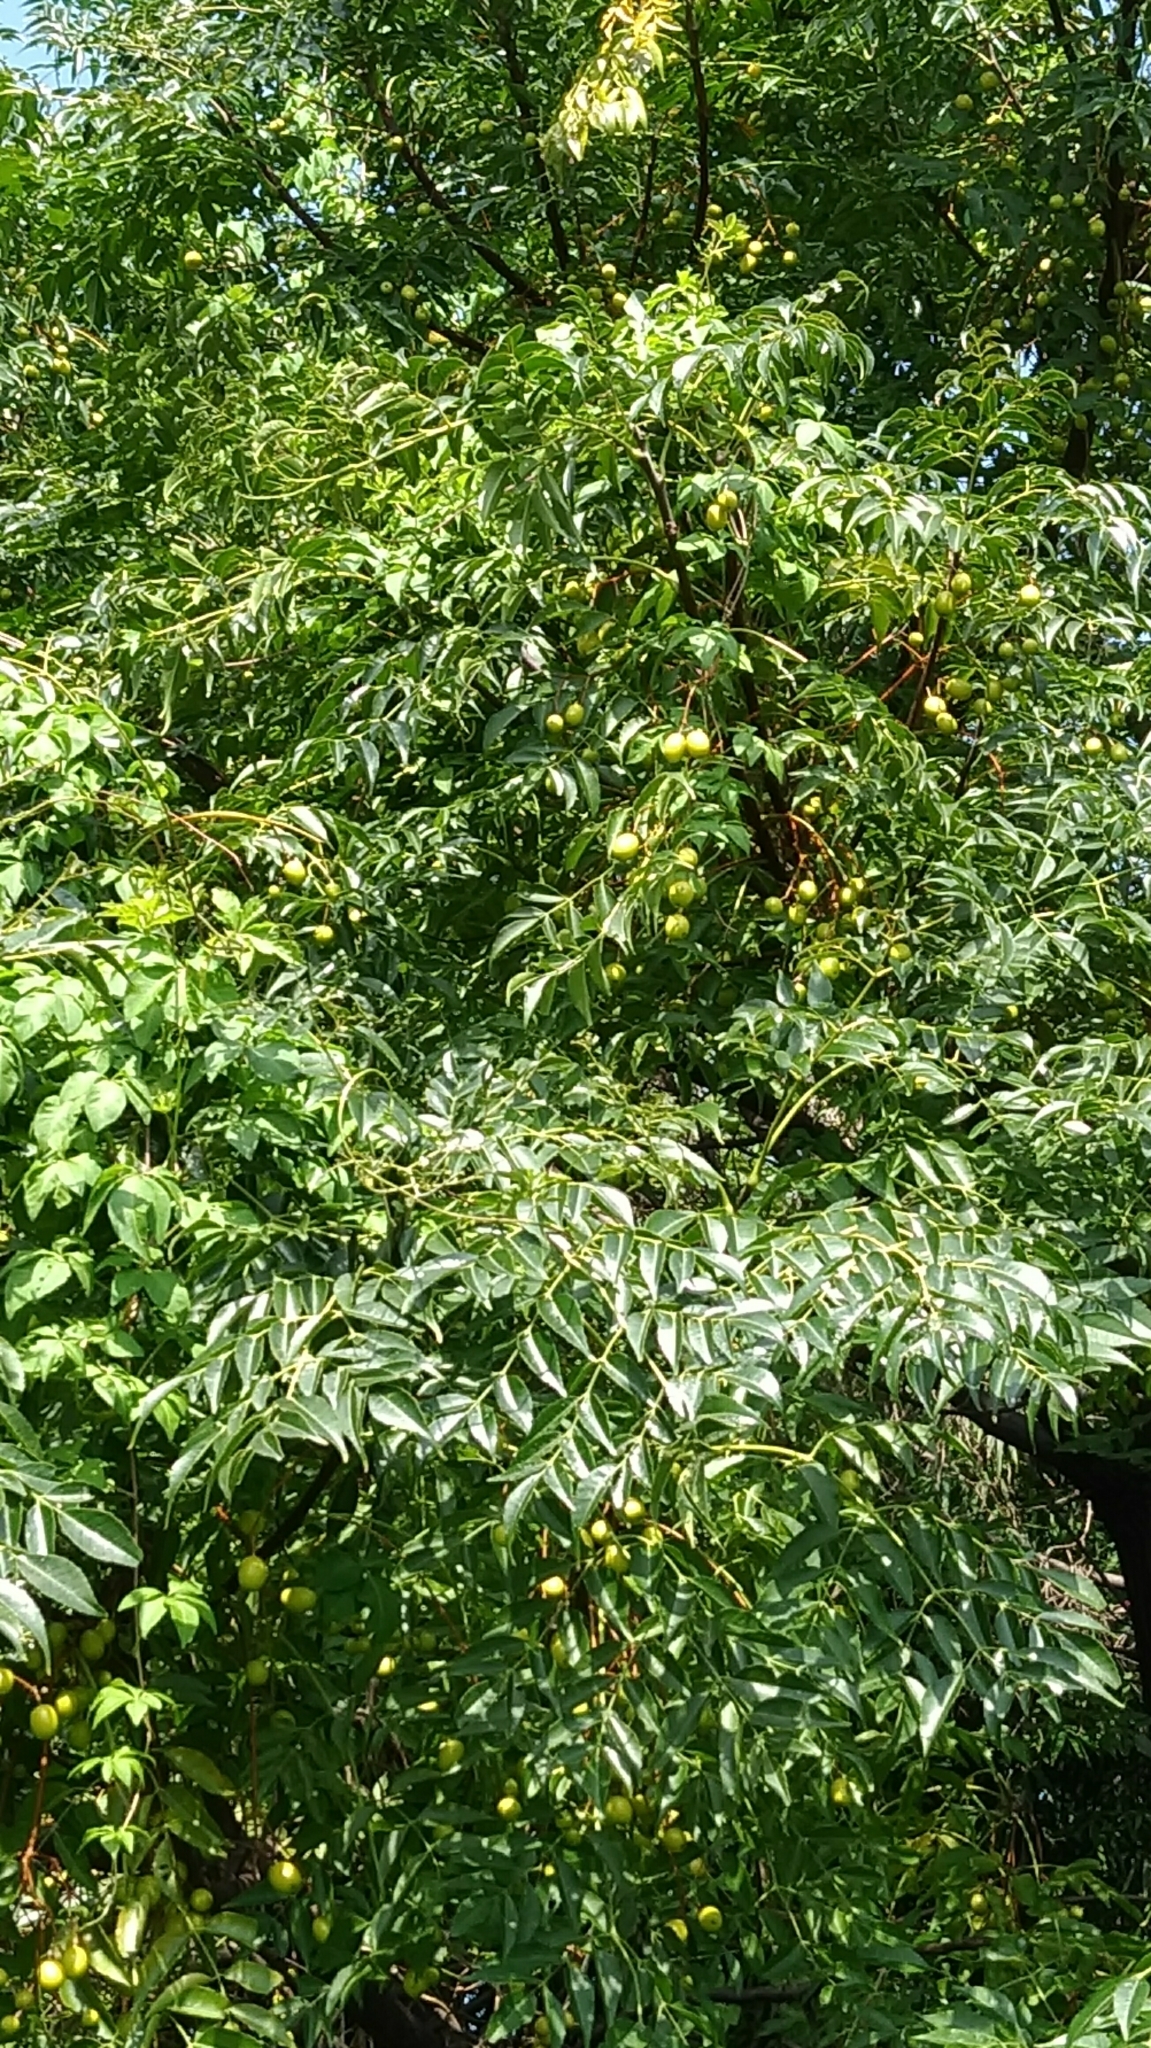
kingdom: Plantae
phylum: Tracheophyta
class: Magnoliopsida
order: Sapindales
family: Meliaceae
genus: Melia
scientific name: Melia azedarach
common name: Chinaberrytree
